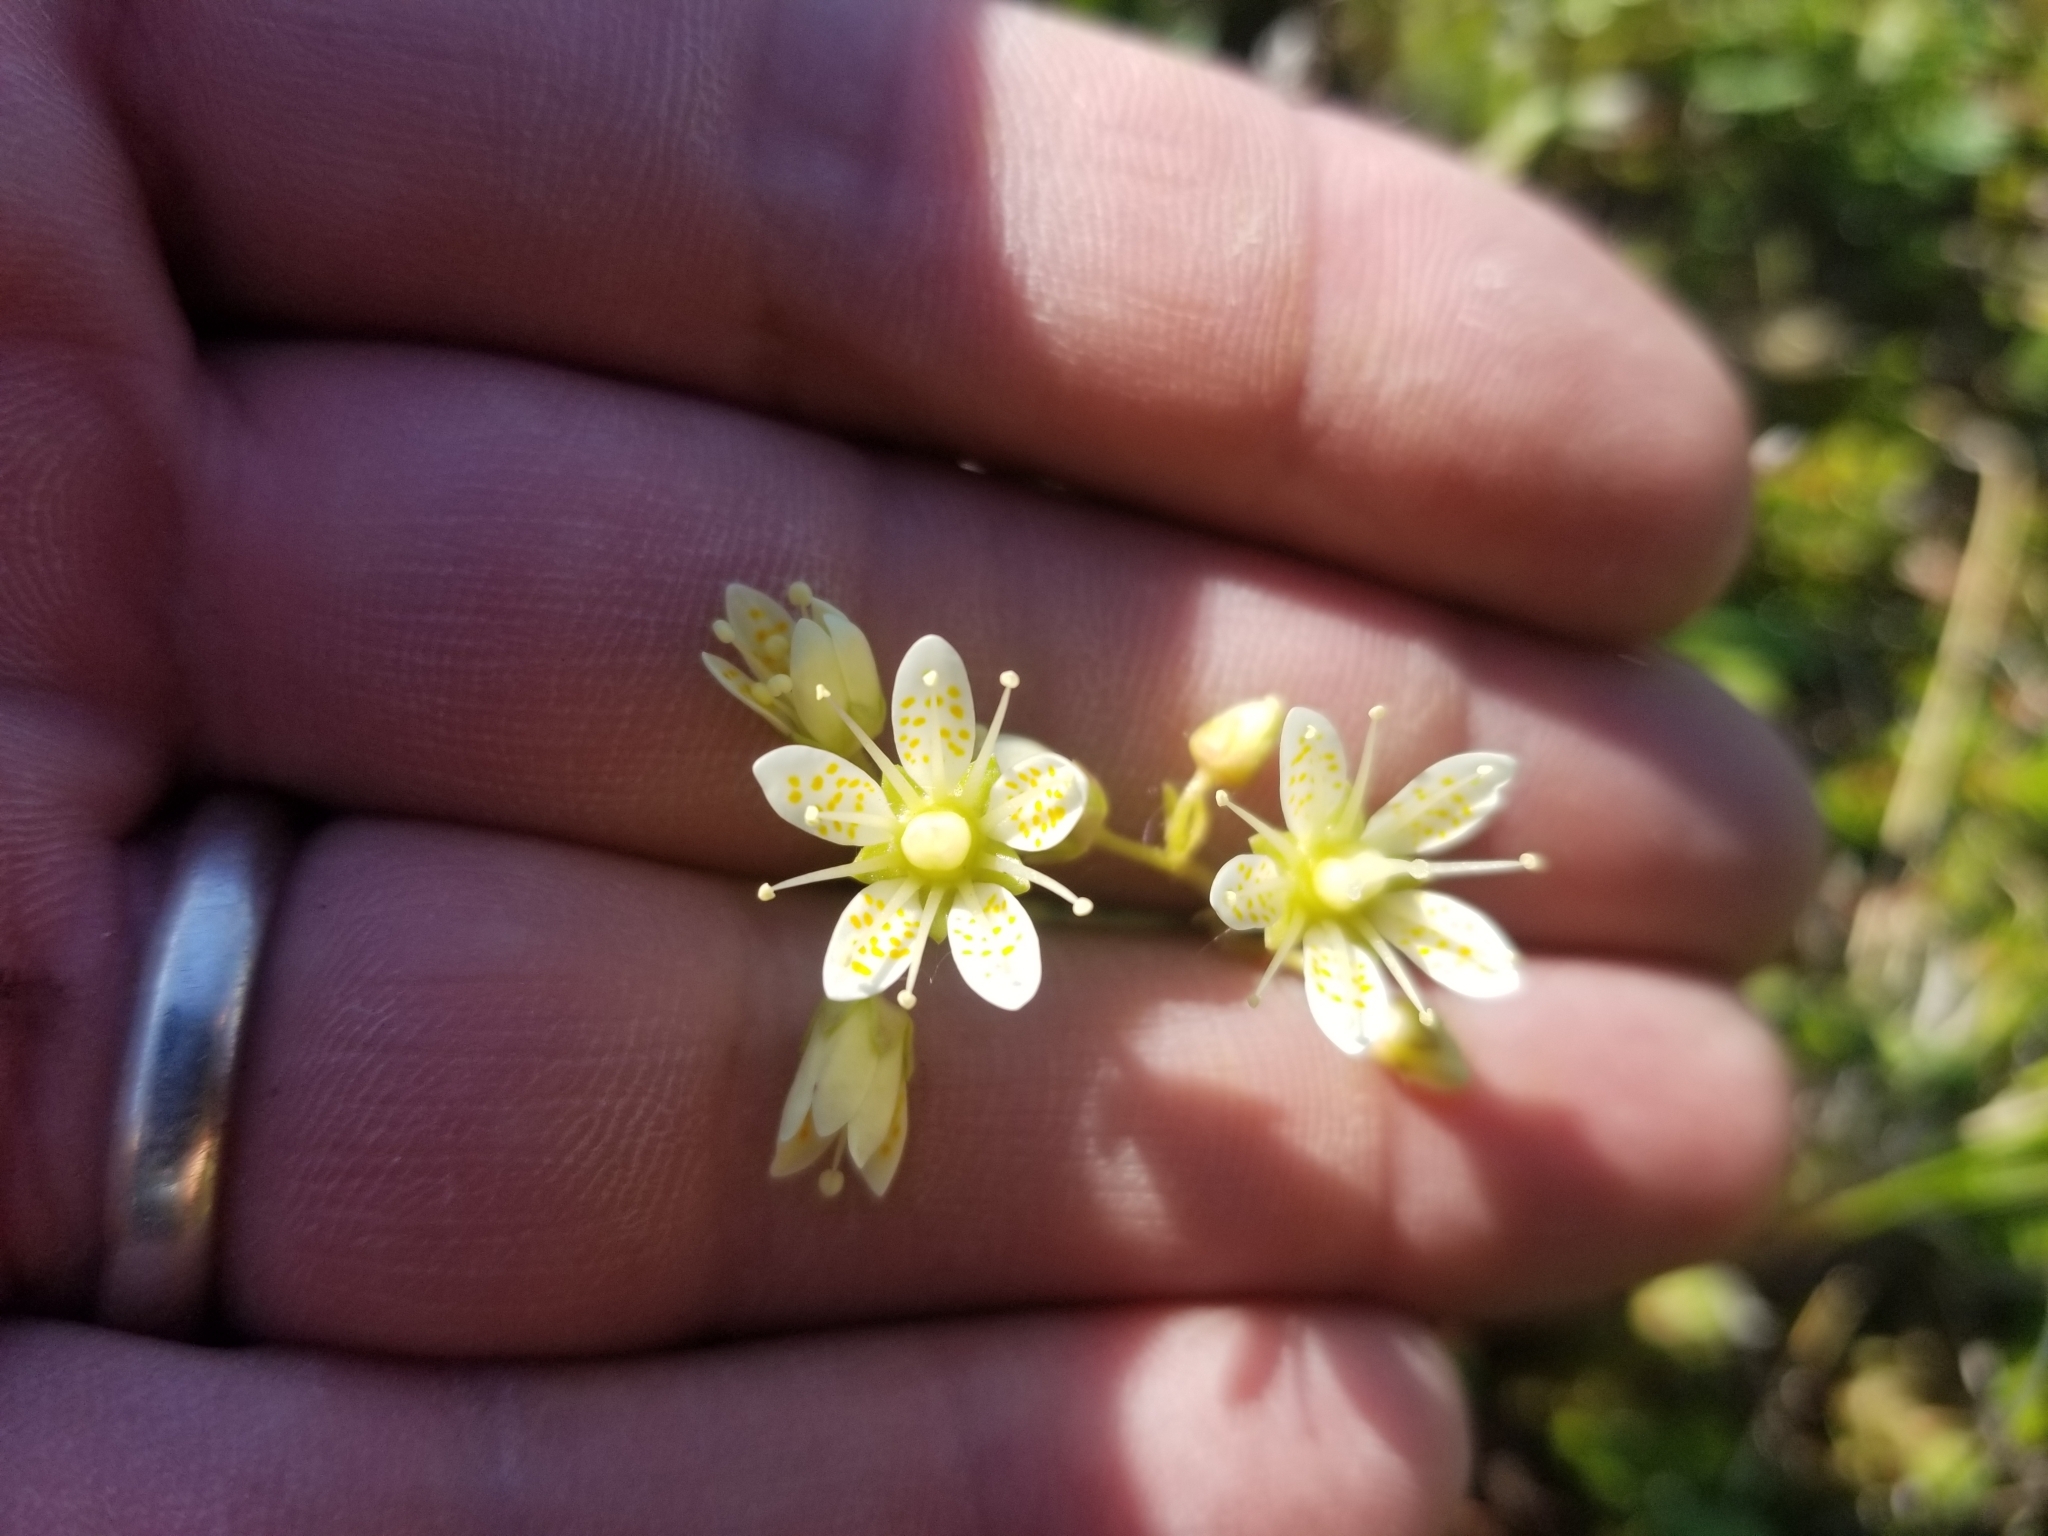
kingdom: Plantae
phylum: Tracheophyta
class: Magnoliopsida
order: Saxifragales
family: Saxifragaceae
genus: Saxifraga
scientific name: Saxifraga bronchialis
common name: Matted saxifrage
